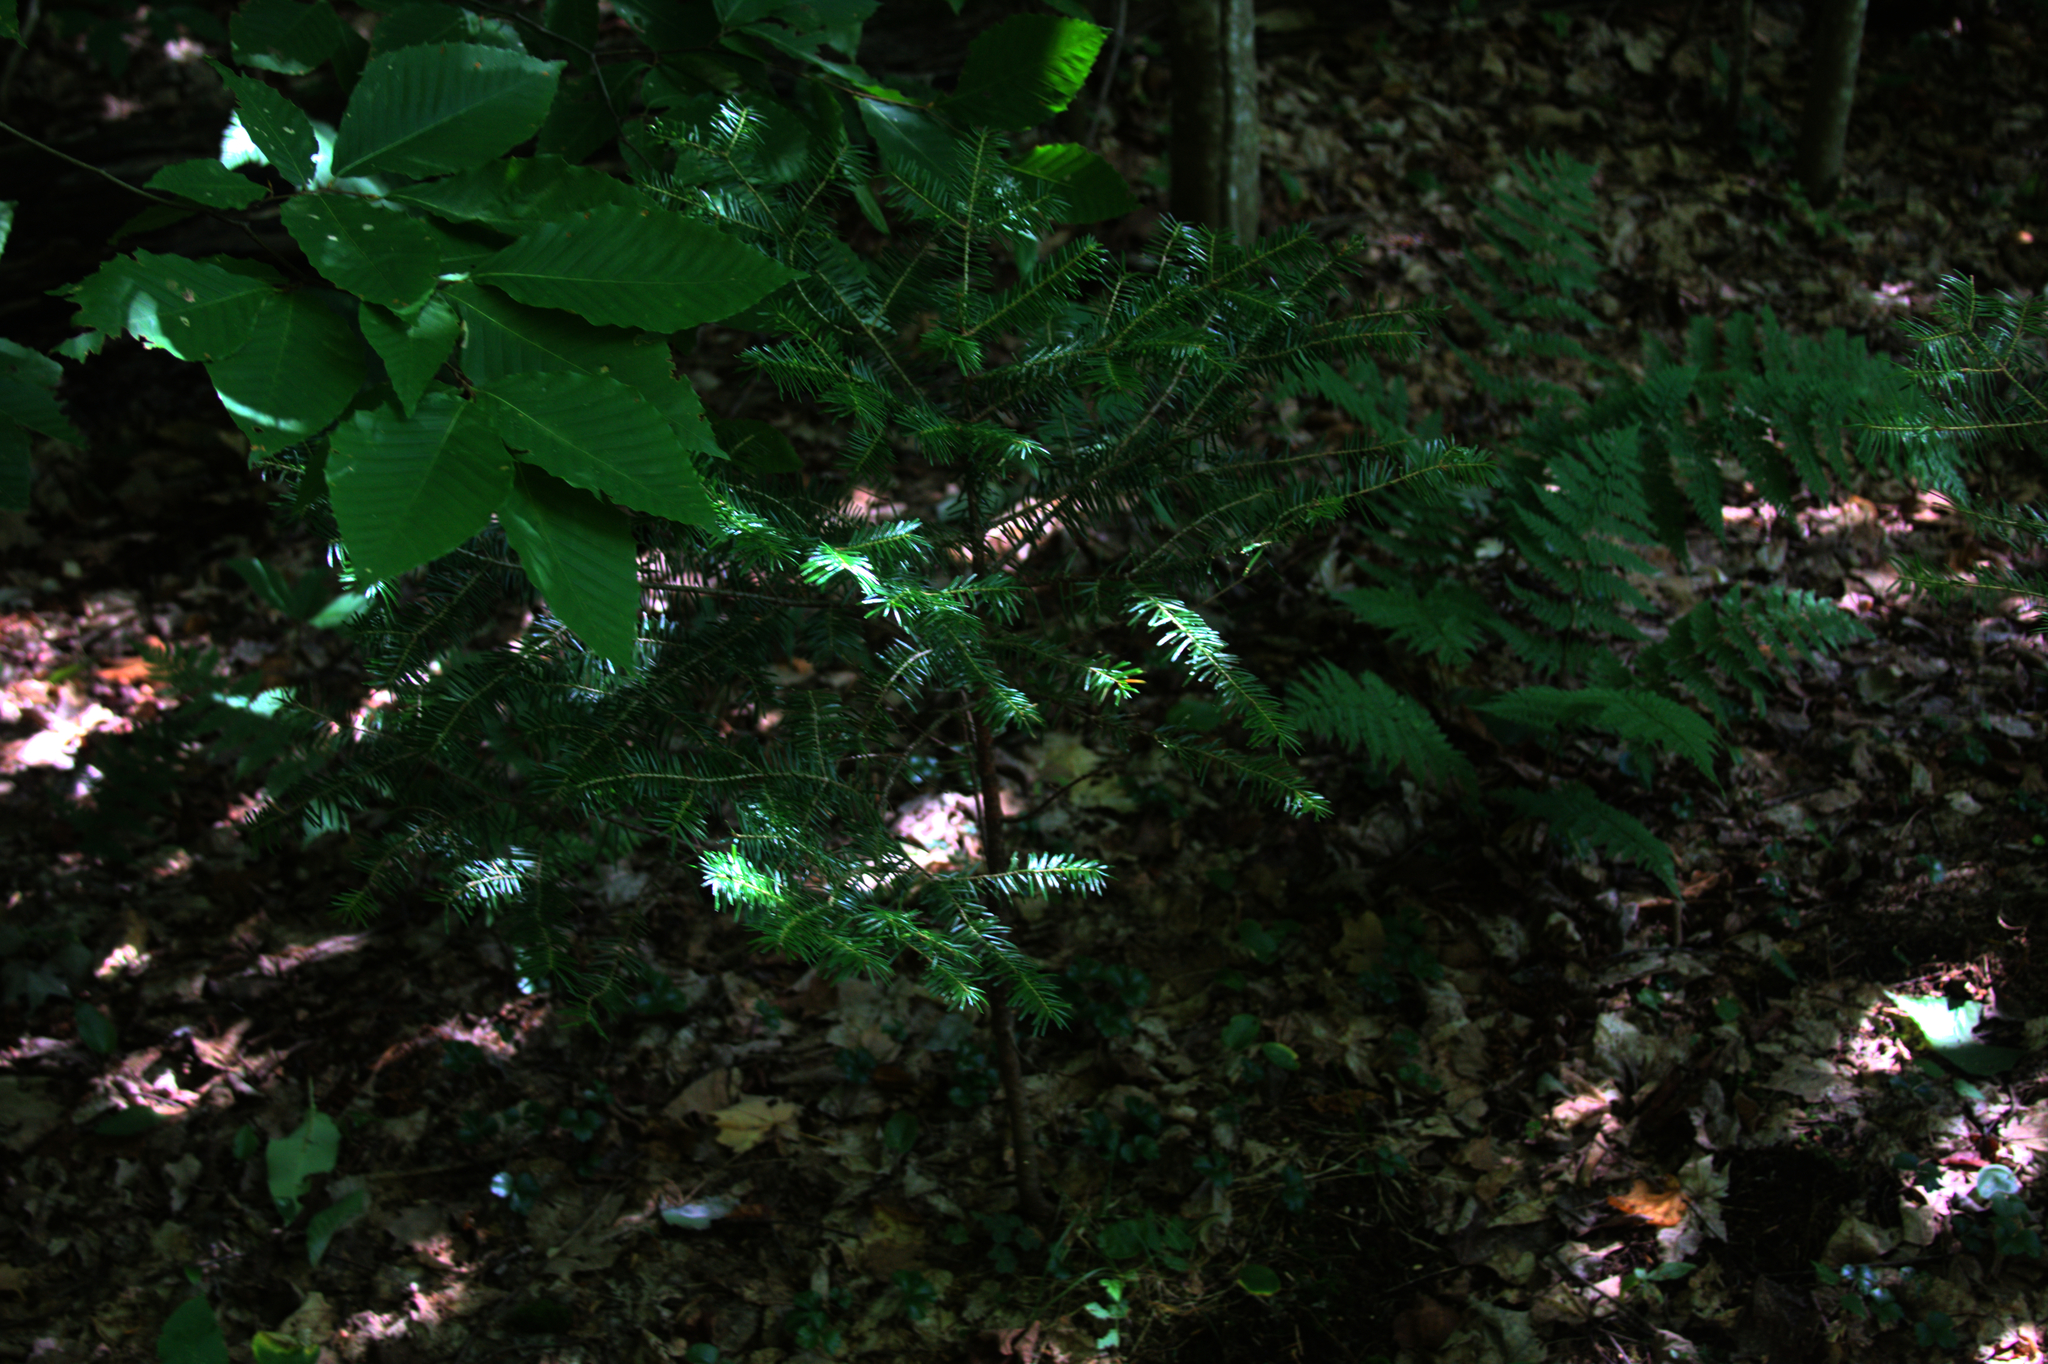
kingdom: Plantae
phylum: Tracheophyta
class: Magnoliopsida
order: Fagales
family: Fagaceae
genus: Fagus
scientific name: Fagus grandifolia
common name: American beech
